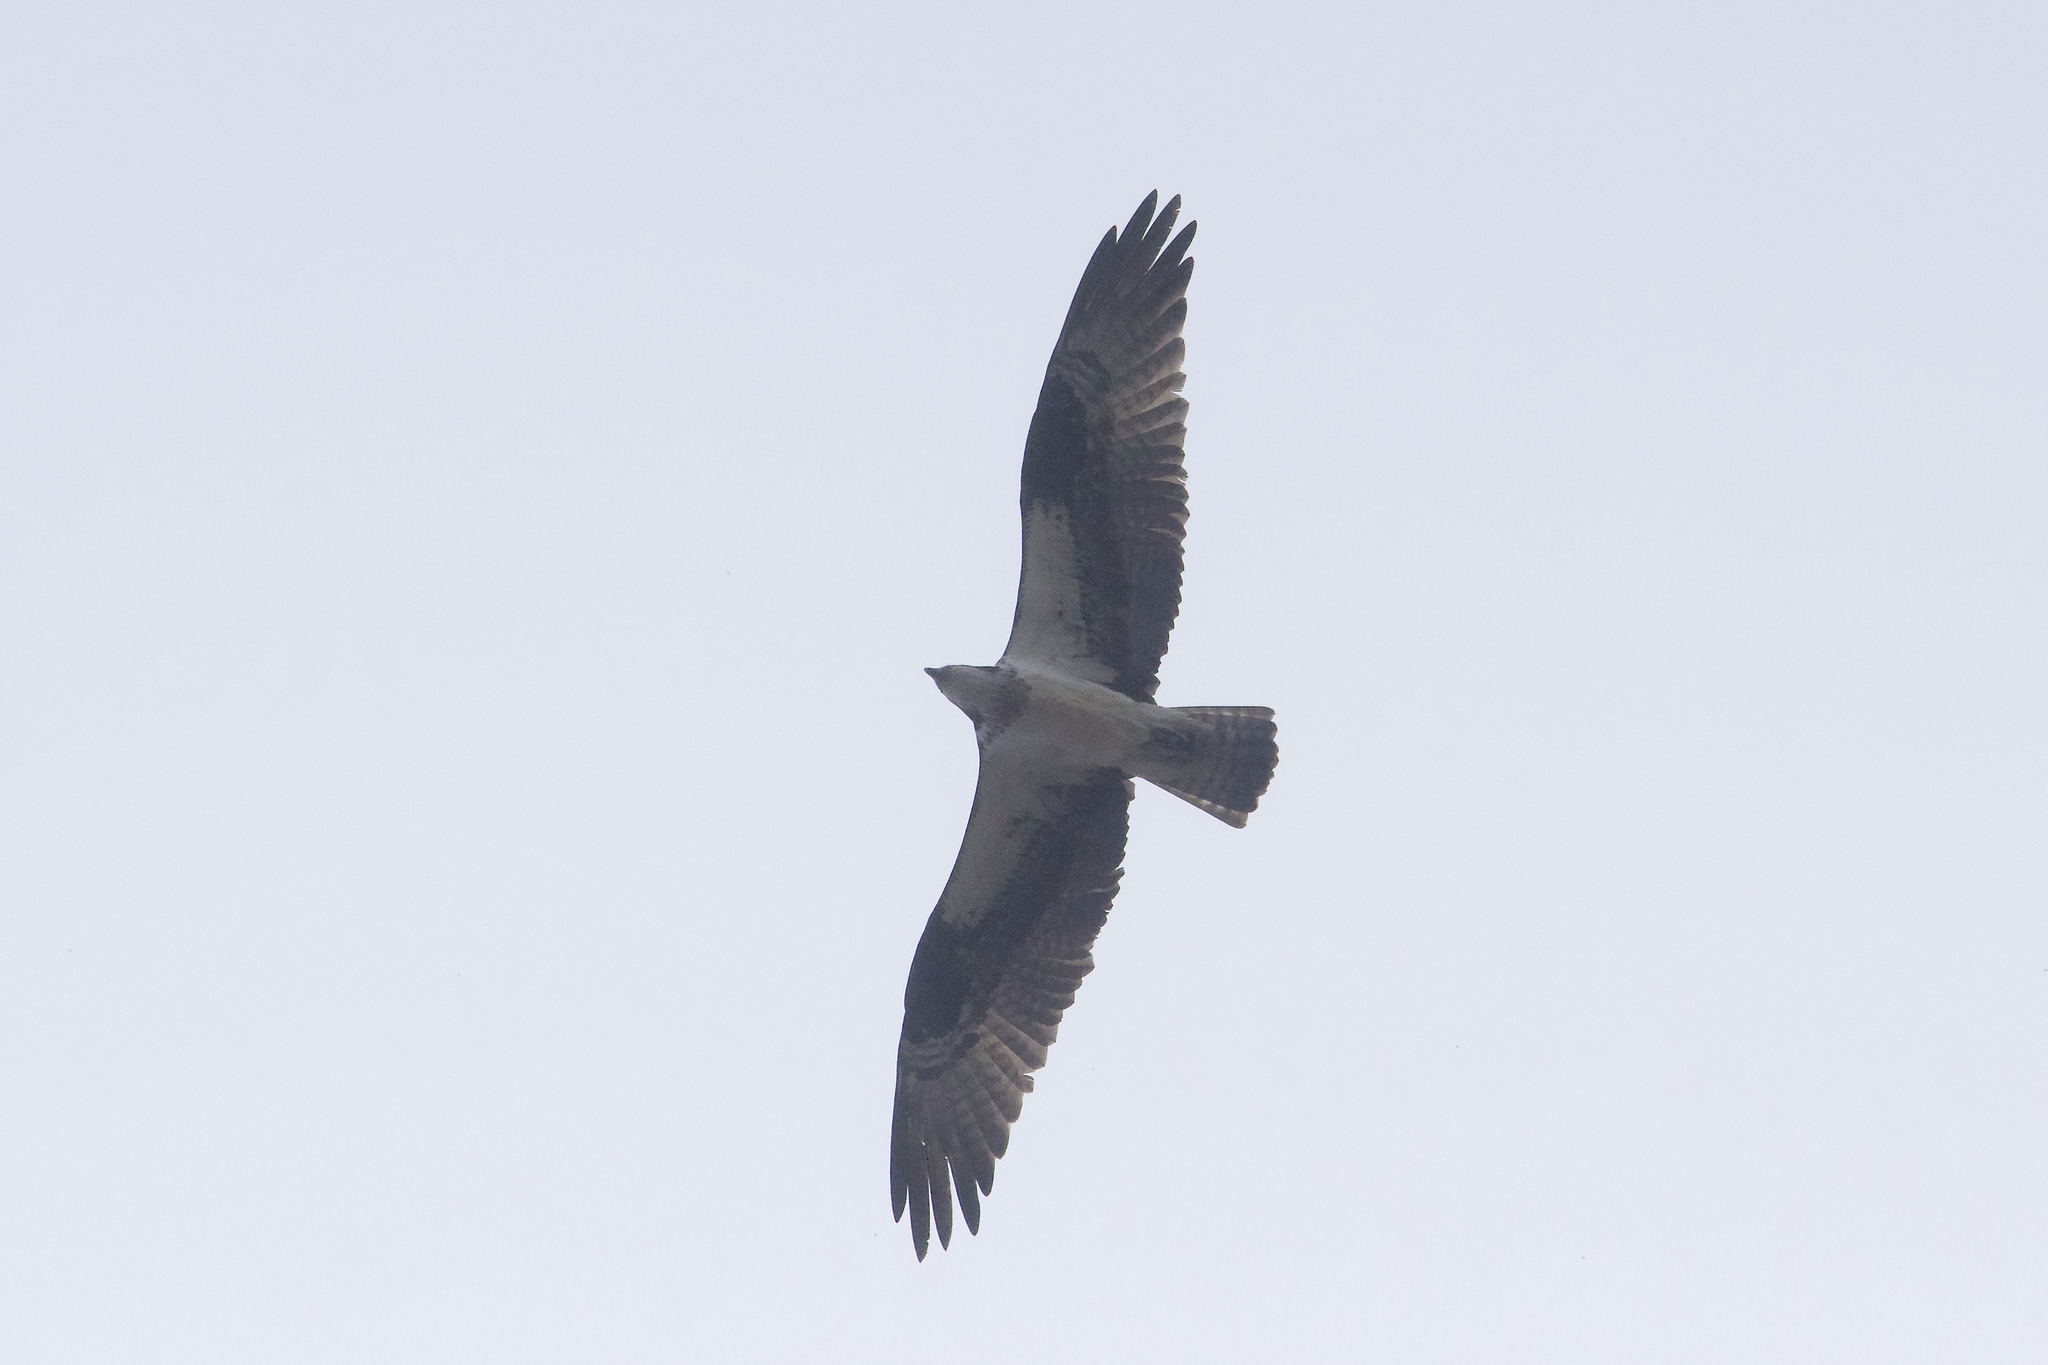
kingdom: Animalia
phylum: Chordata
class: Aves
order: Accipitriformes
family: Pandionidae
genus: Pandion
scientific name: Pandion haliaetus
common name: Osprey
